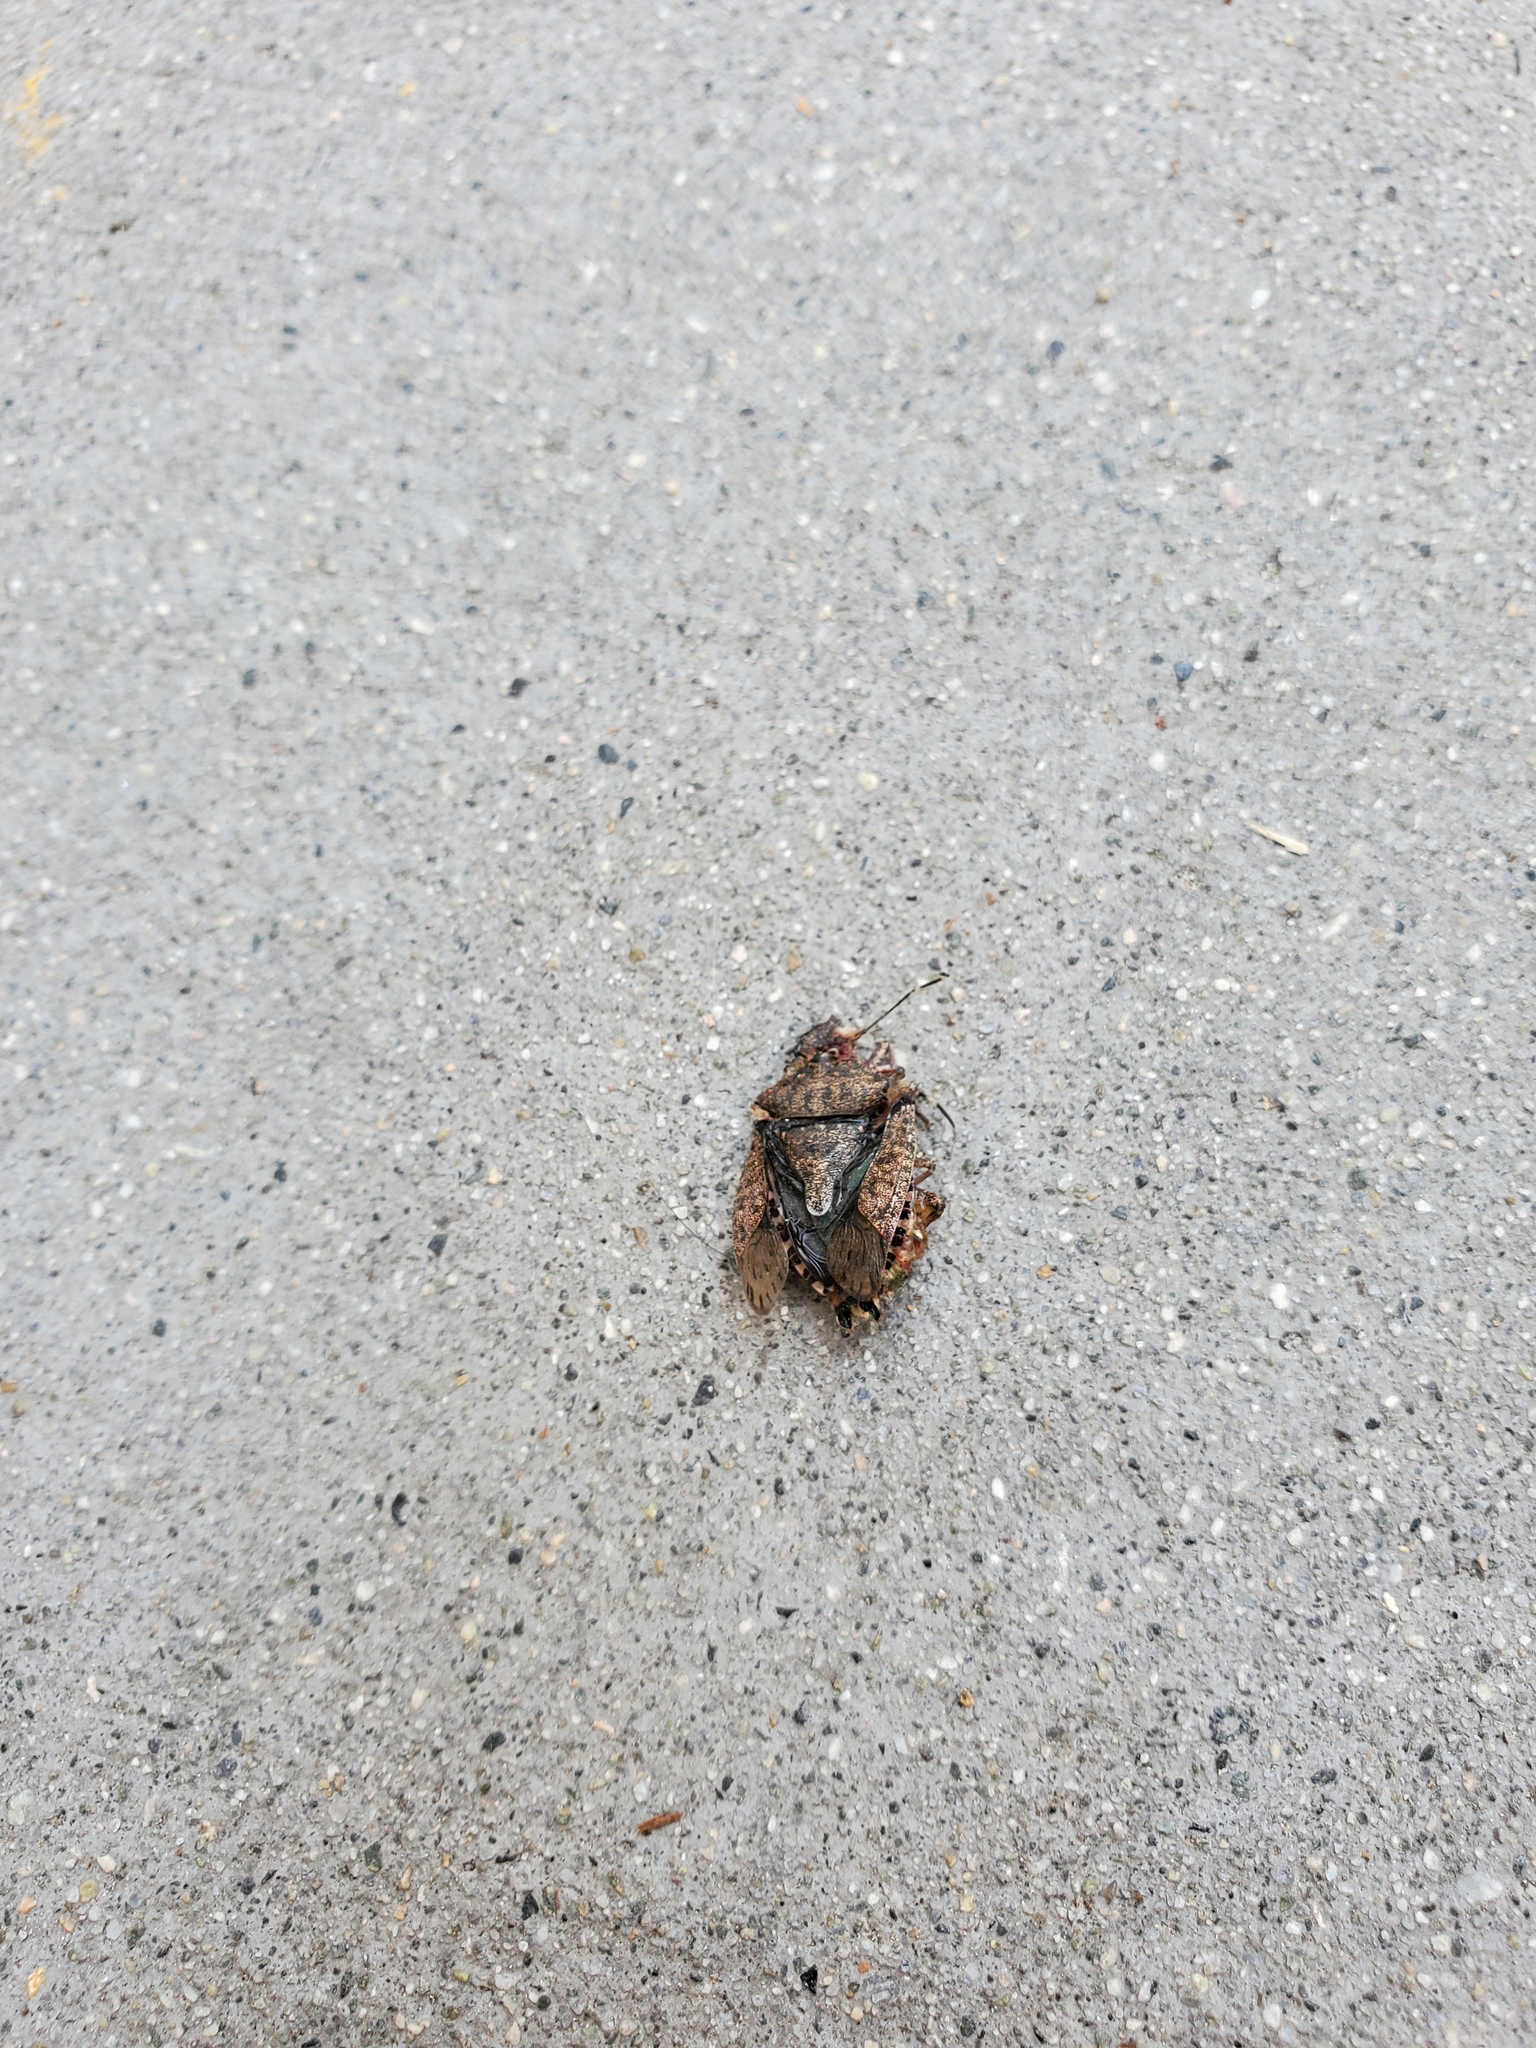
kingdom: Animalia
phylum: Arthropoda
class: Insecta
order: Hemiptera
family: Pentatomidae
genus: Halyomorpha
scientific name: Halyomorpha halys
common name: Brown marmorated stink bug
